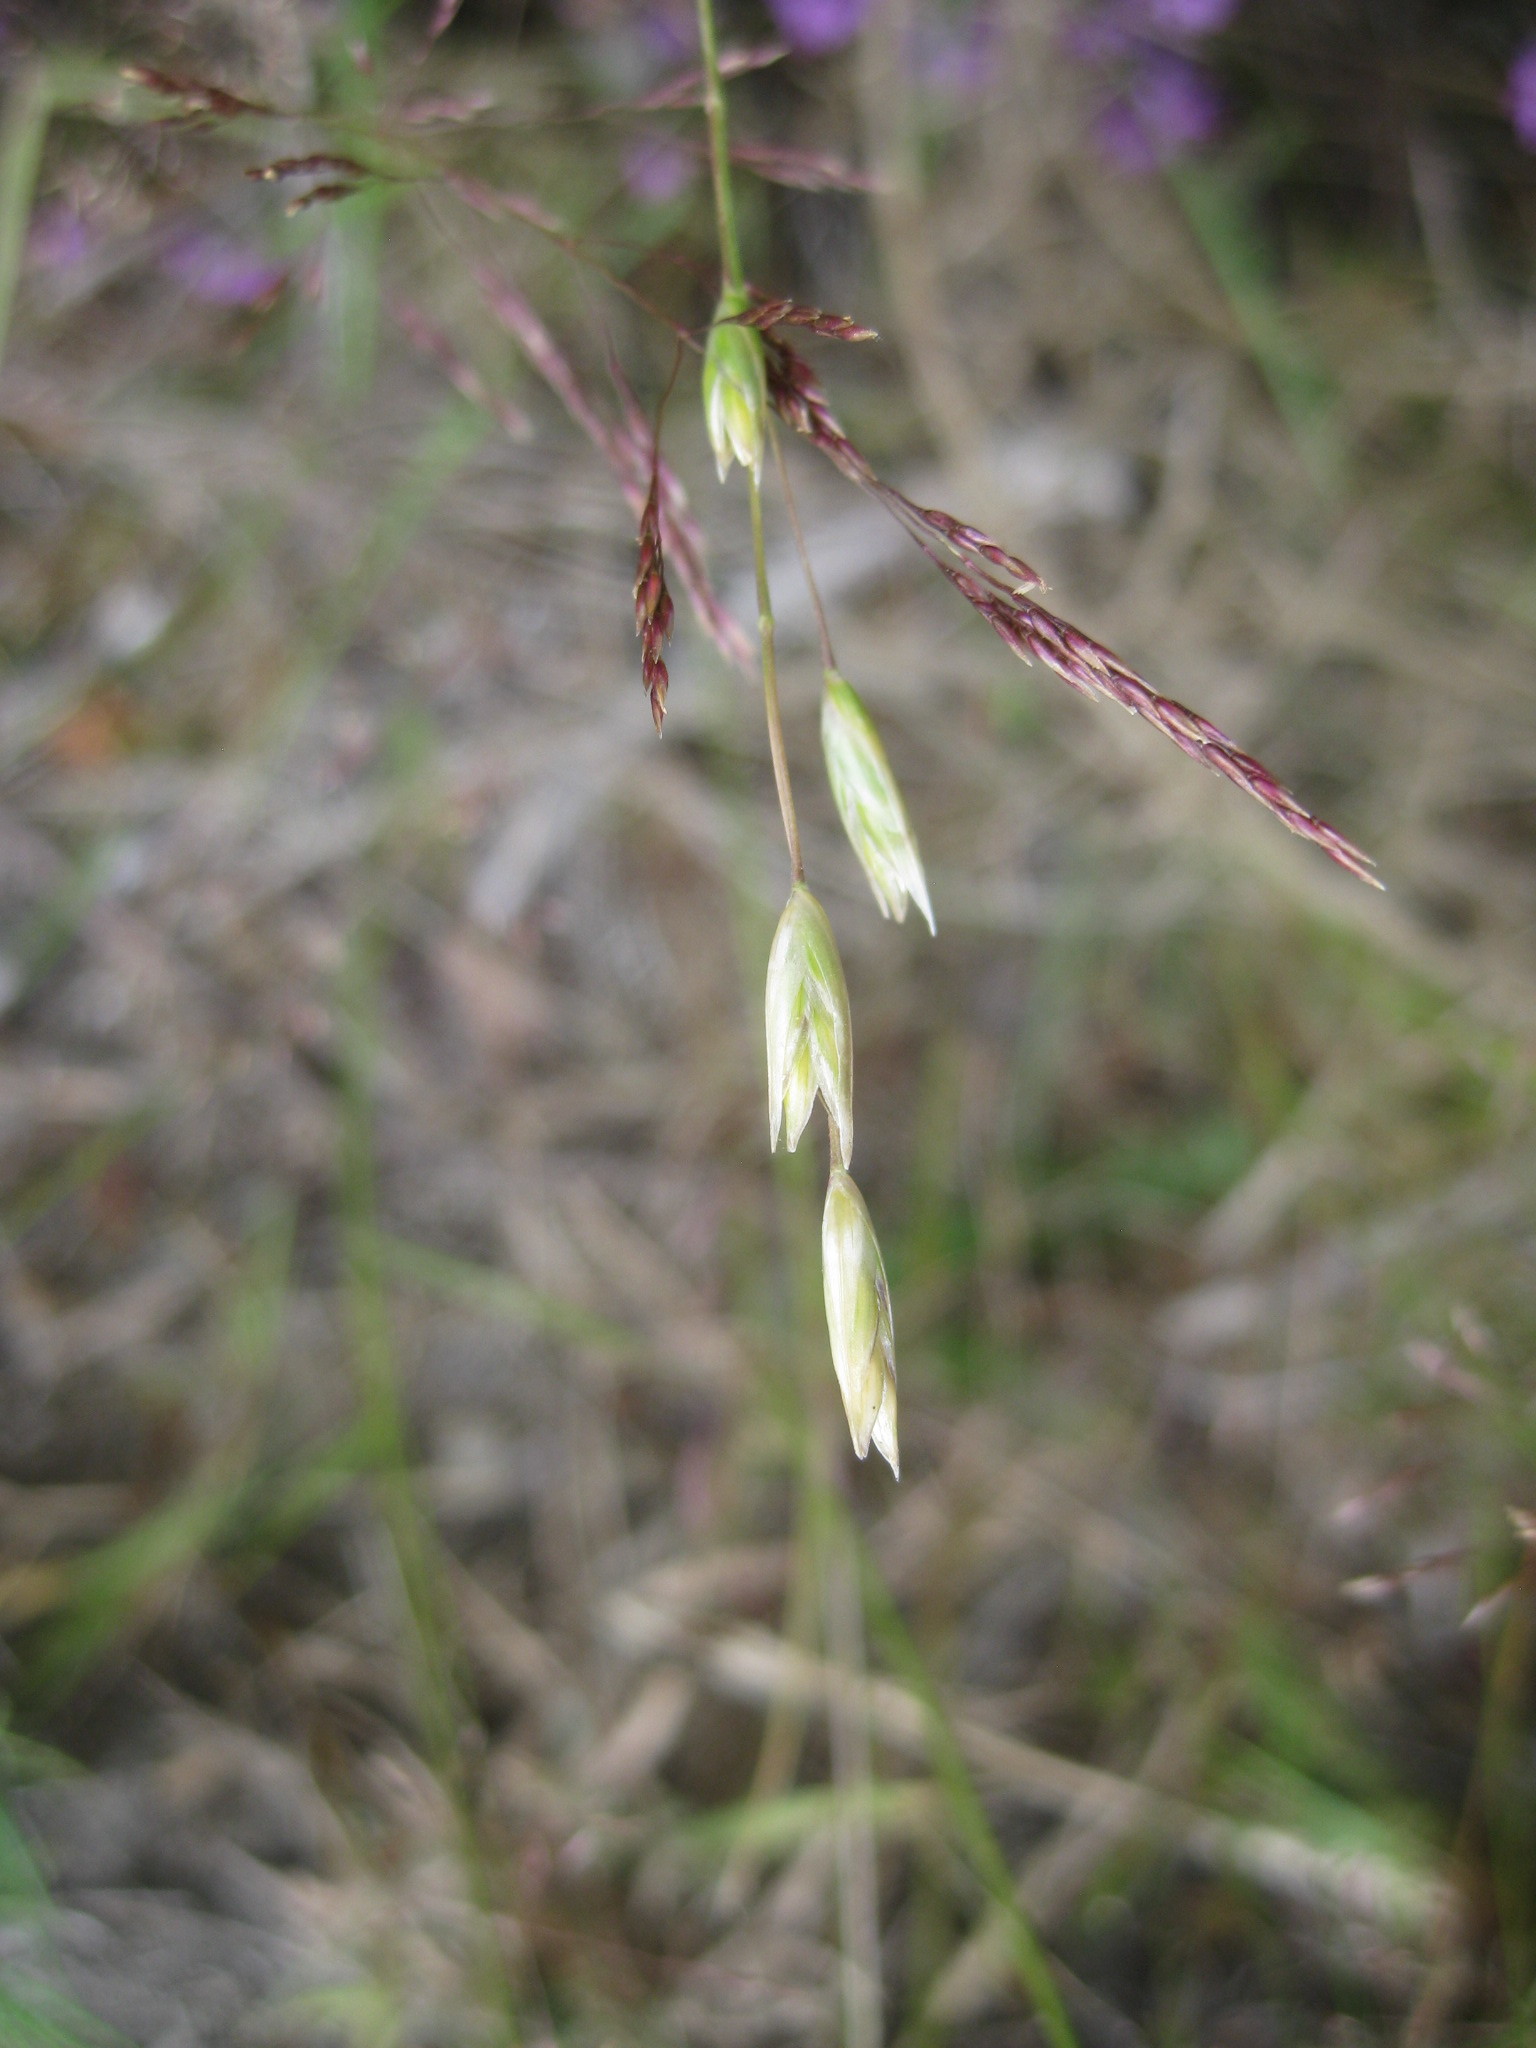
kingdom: Plantae
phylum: Tracheophyta
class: Liliopsida
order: Poales
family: Poaceae
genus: Danthonia
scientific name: Danthonia decumbens
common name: Common heathgrass
